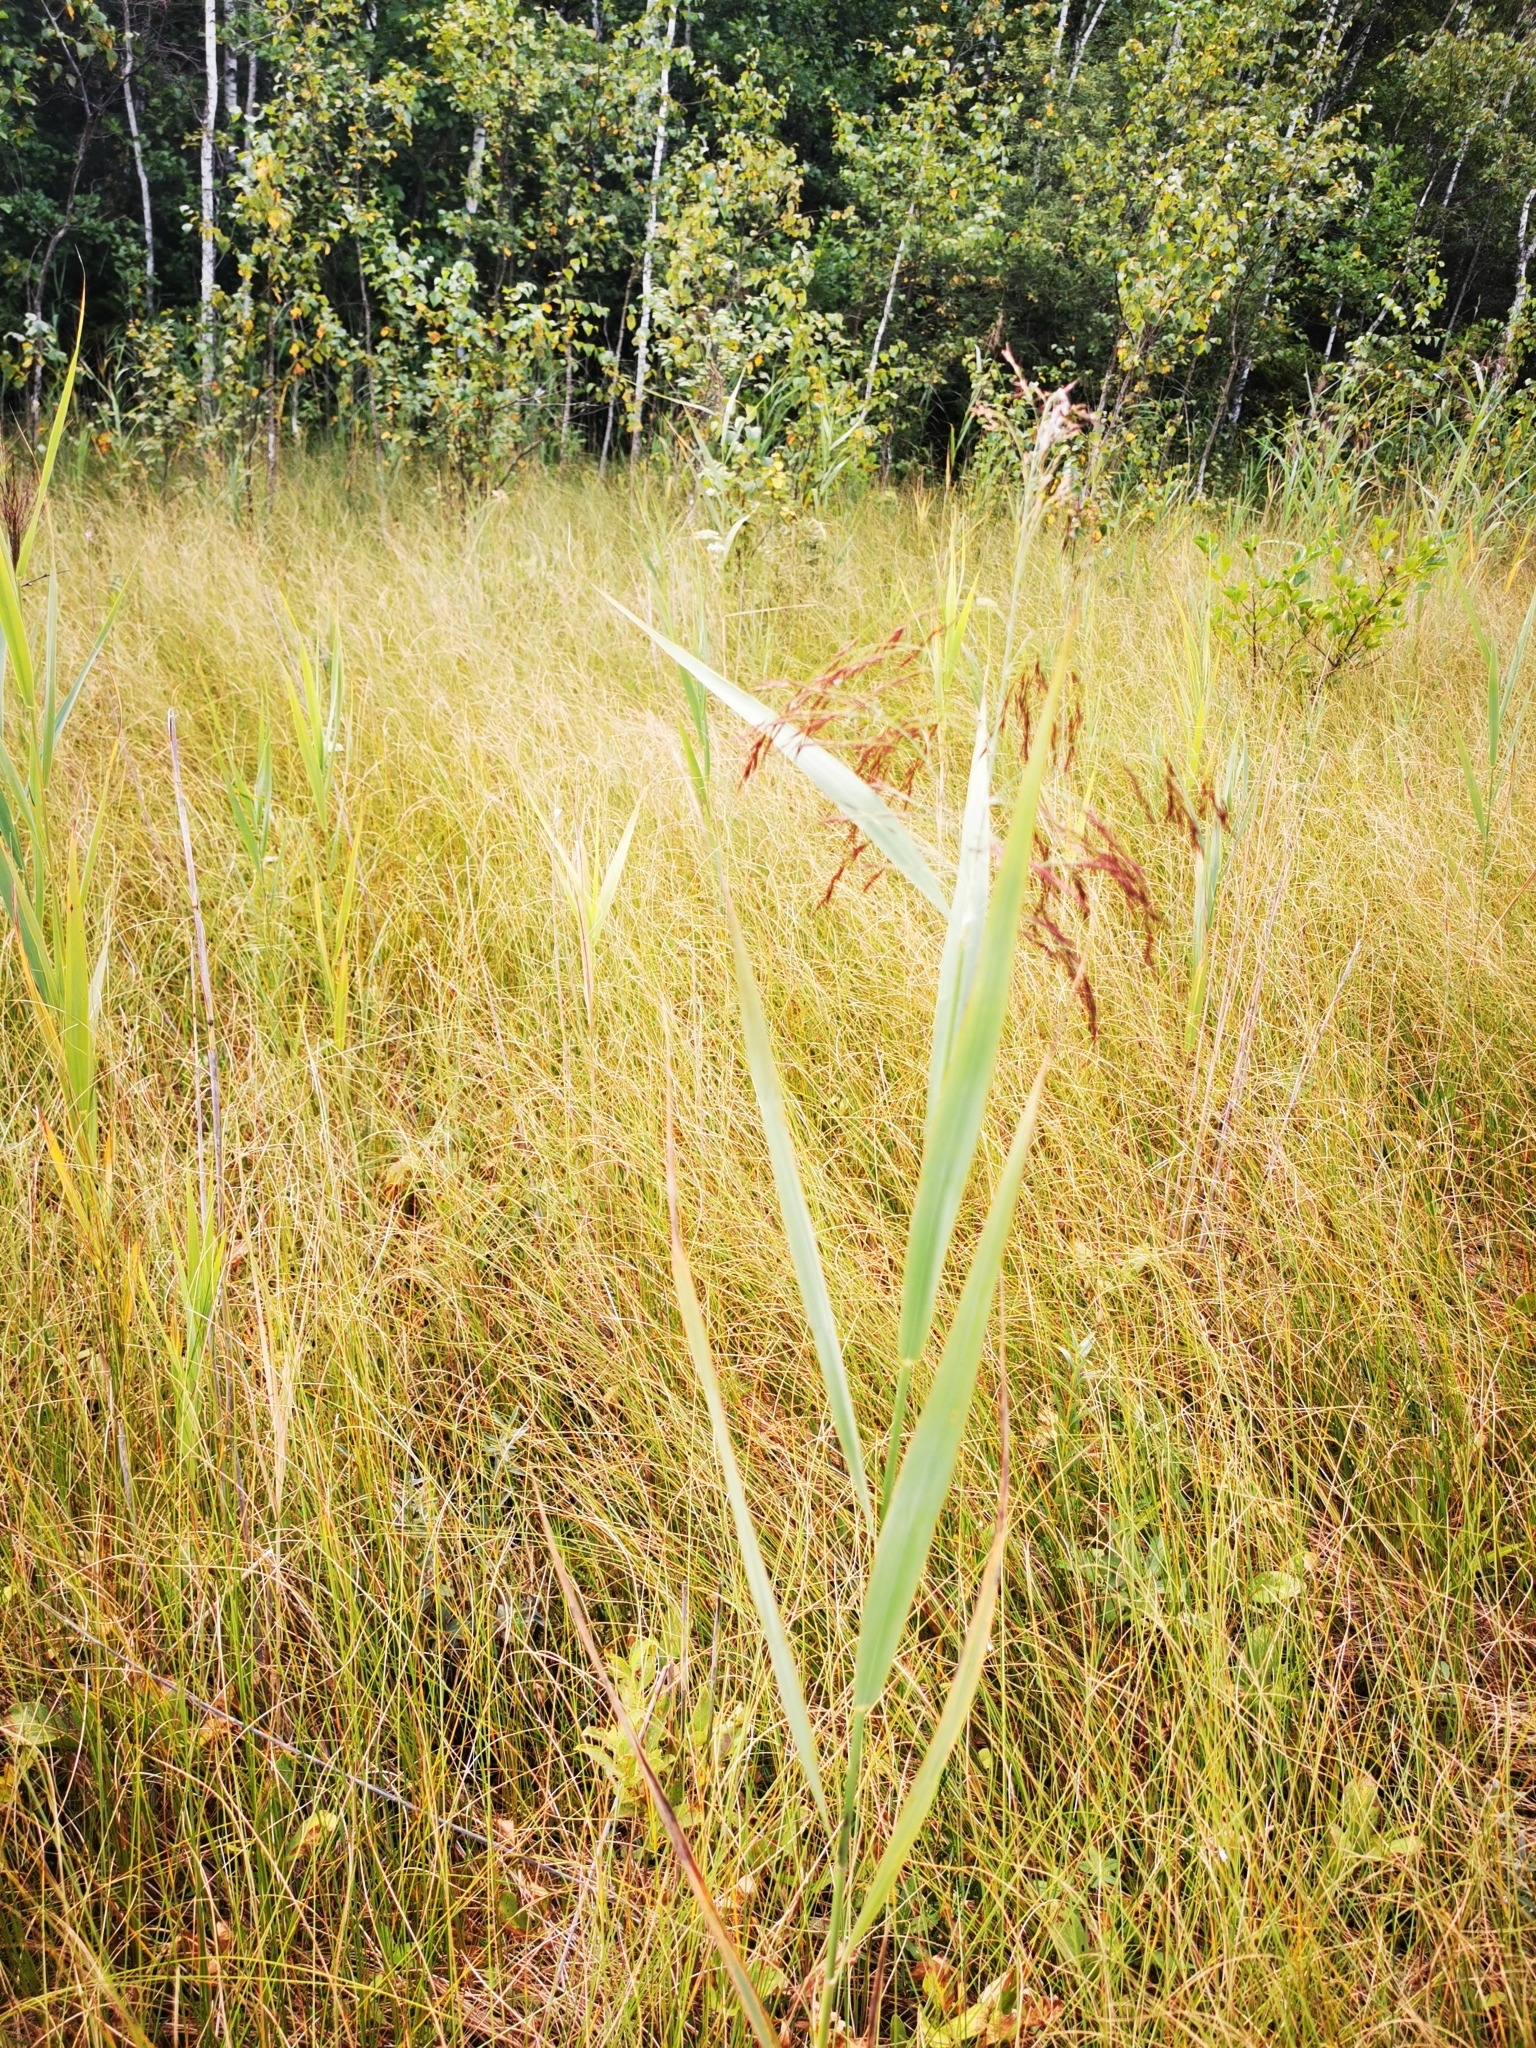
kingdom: Plantae
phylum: Tracheophyta
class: Liliopsida
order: Poales
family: Poaceae
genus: Phragmites
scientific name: Phragmites australis
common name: Common reed
